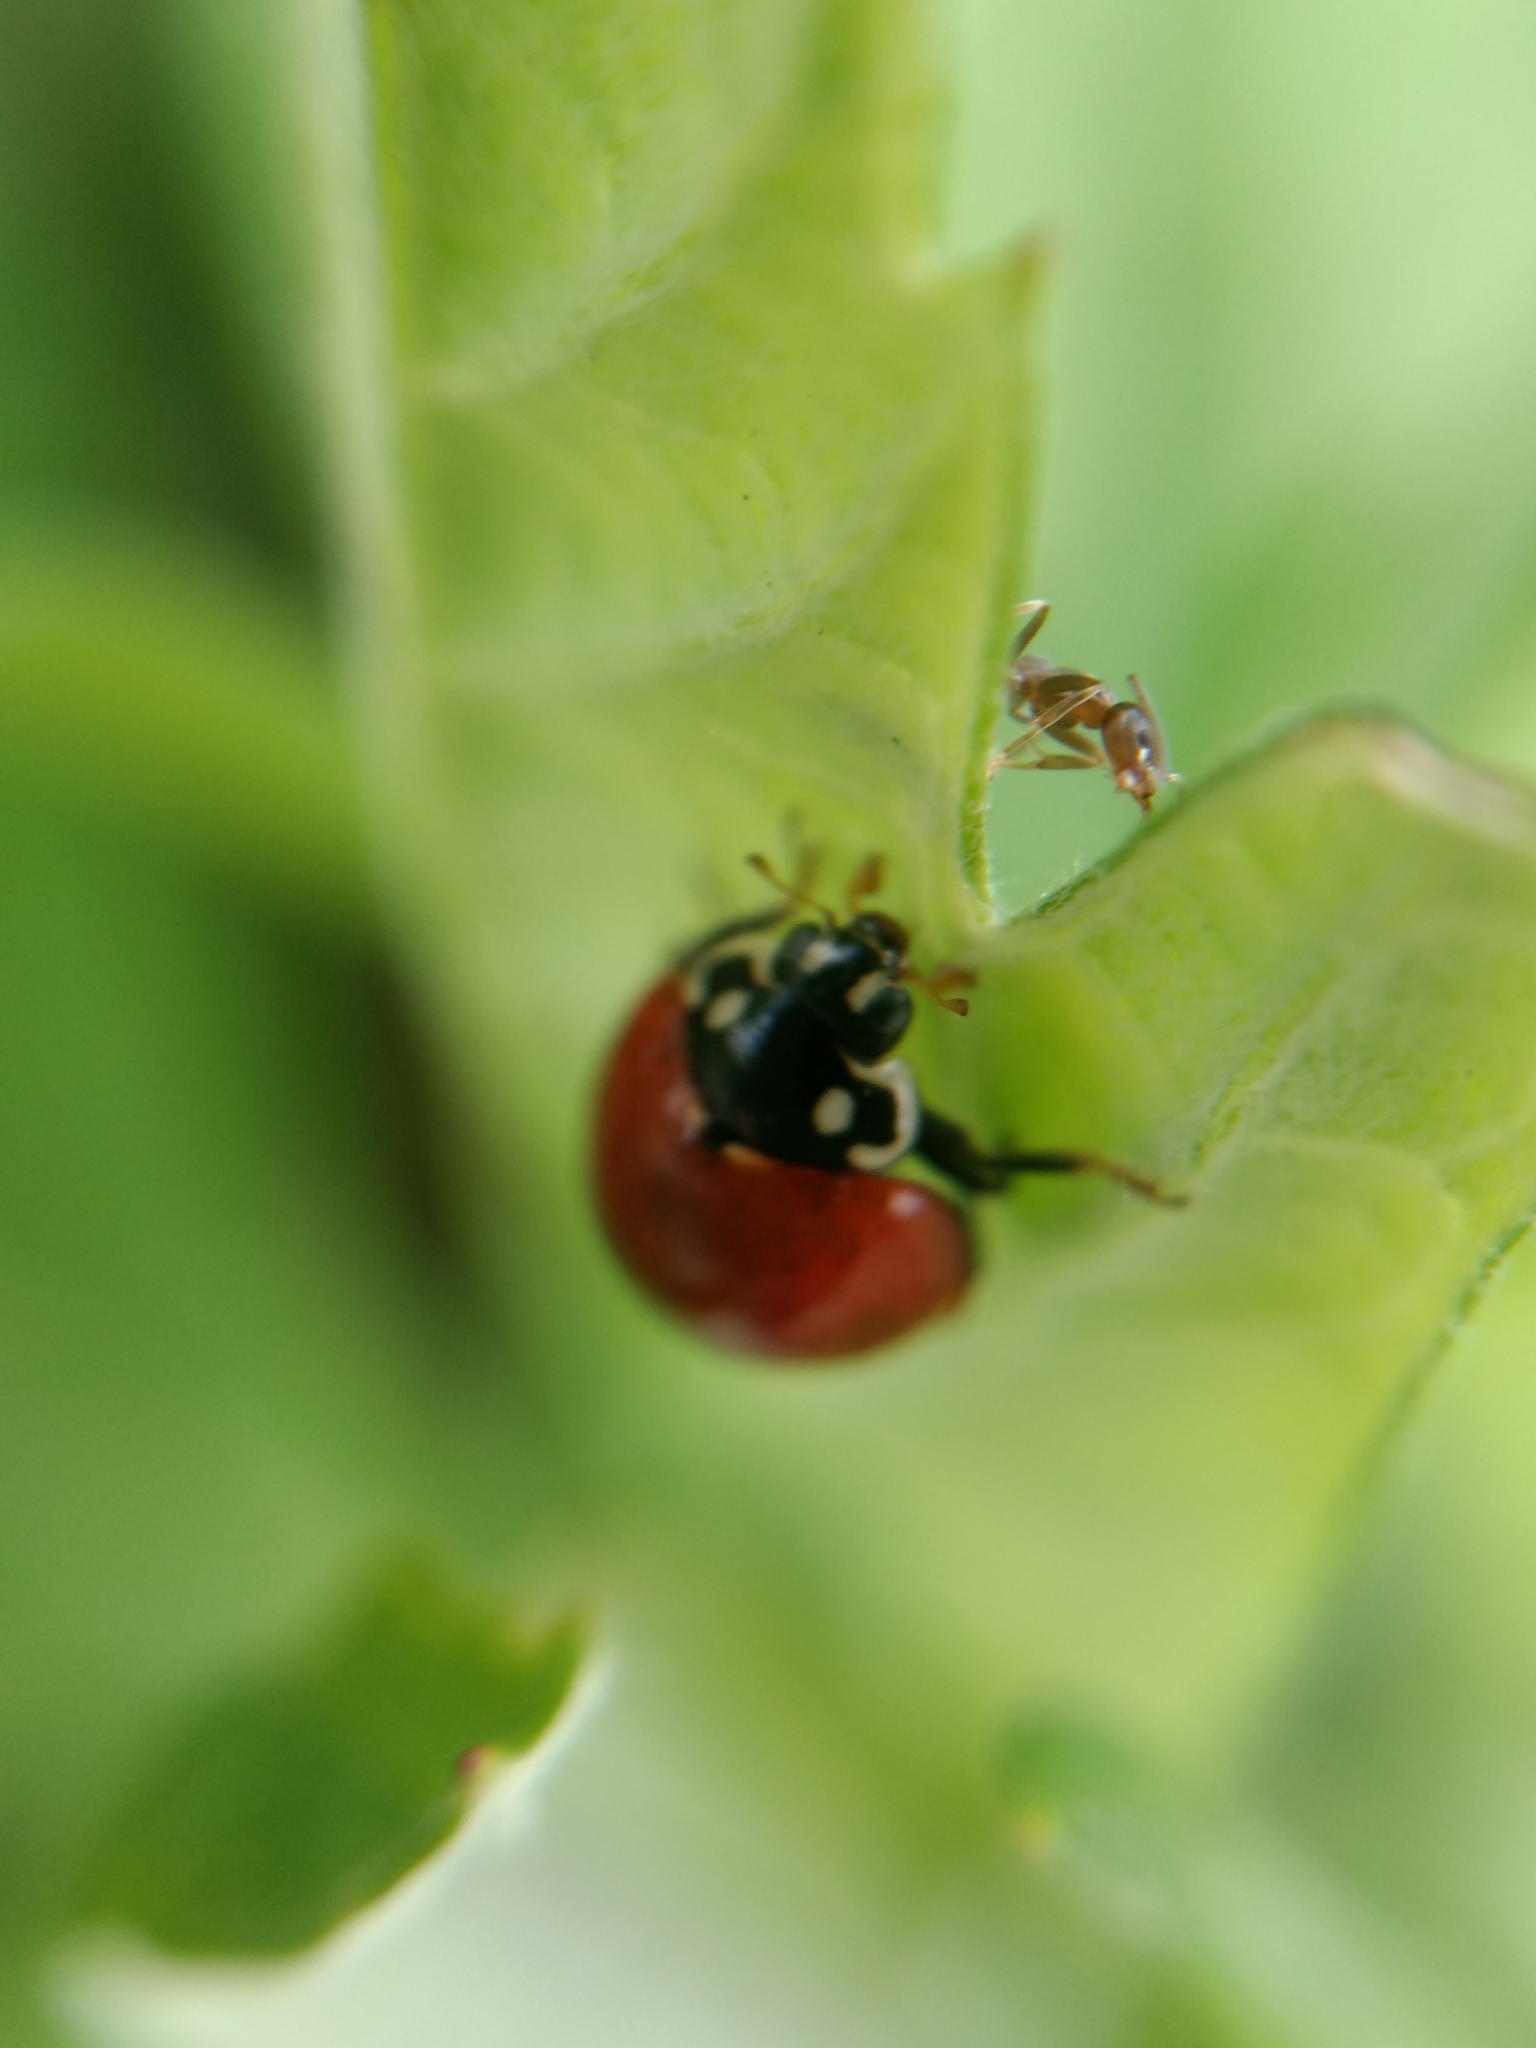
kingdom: Animalia
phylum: Arthropoda
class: Insecta
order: Coleoptera
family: Coccinellidae
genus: Cycloneda
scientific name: Cycloneda sanguinea
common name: Ladybird beetle
